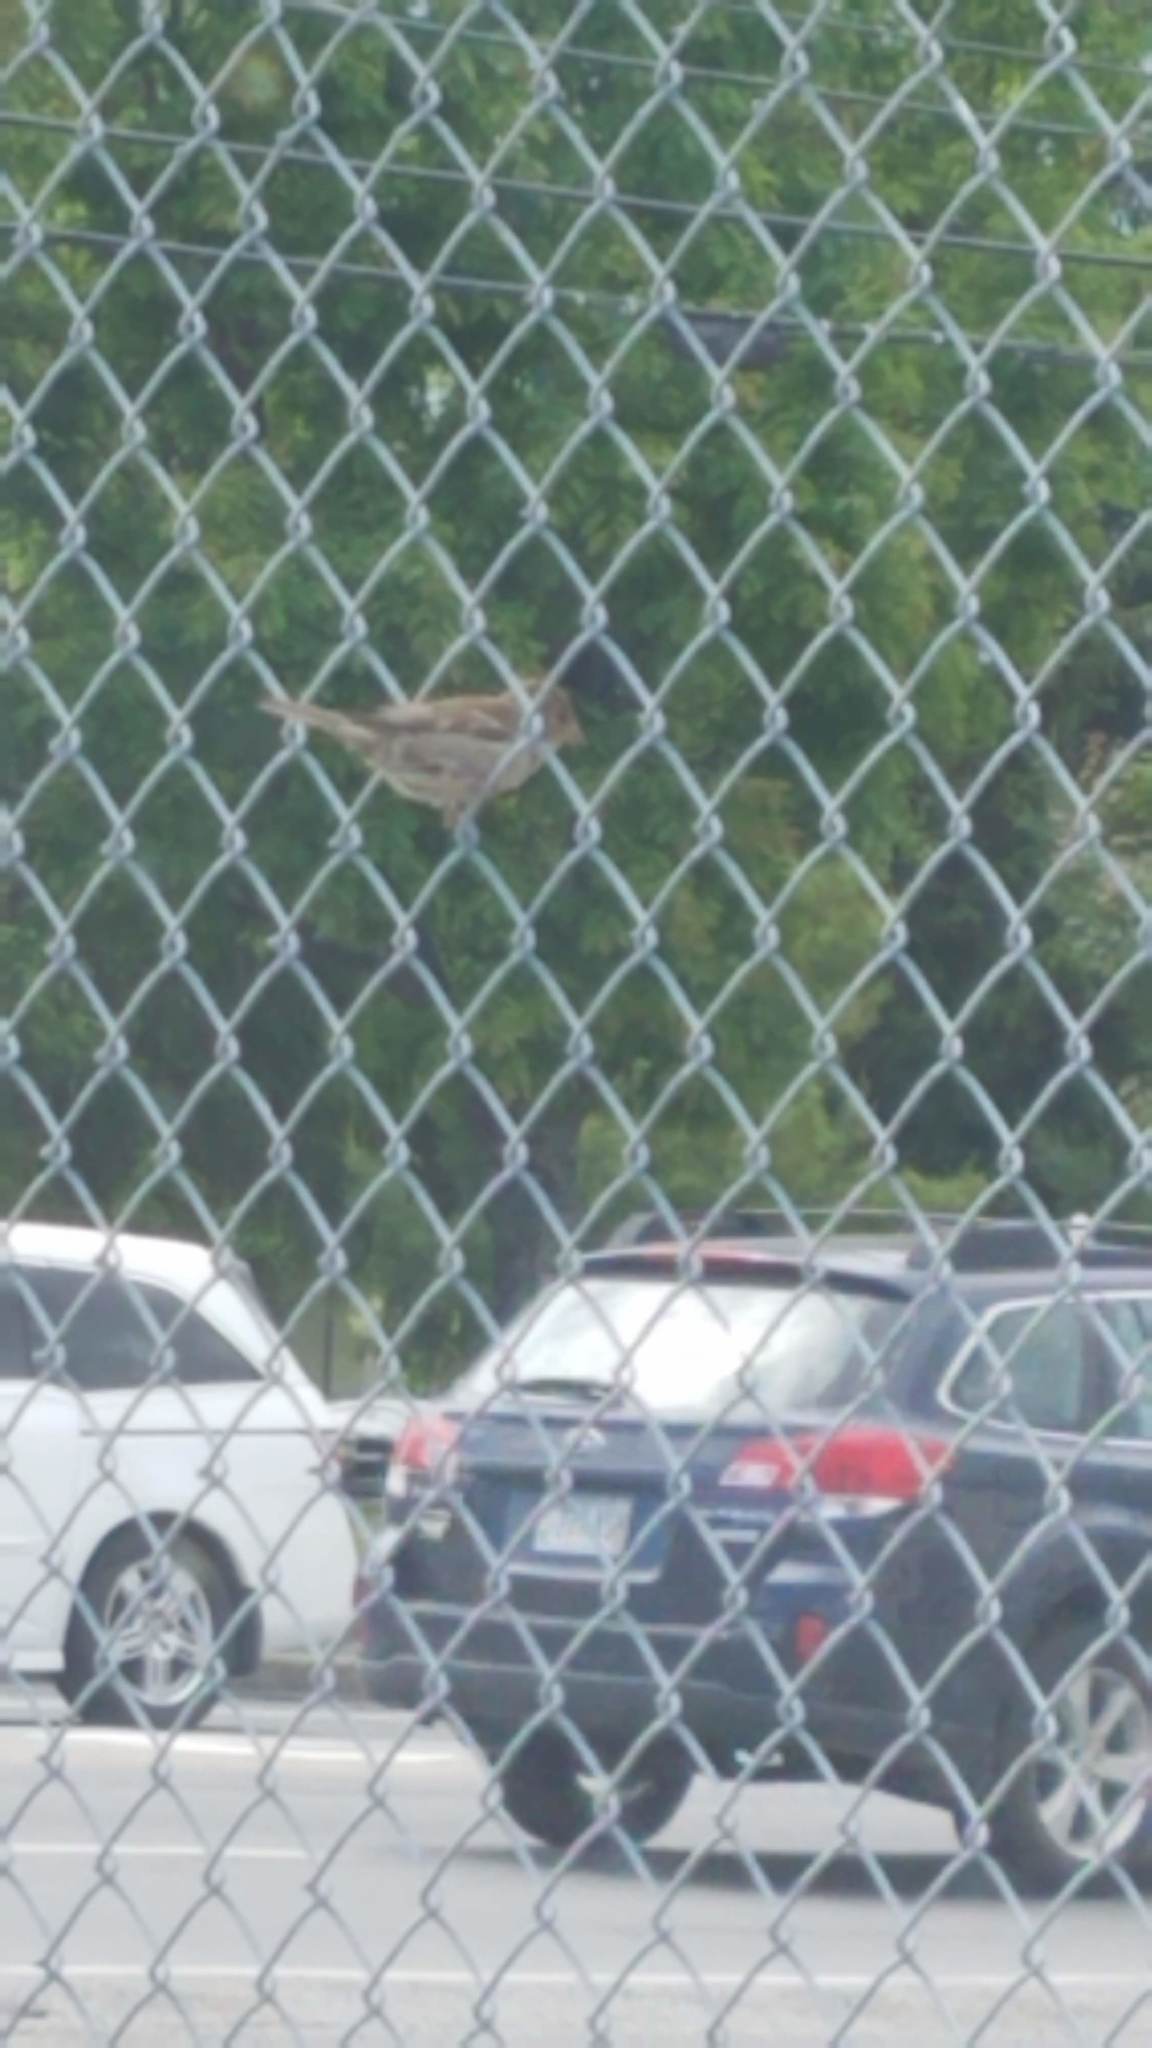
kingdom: Animalia
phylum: Chordata
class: Aves
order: Passeriformes
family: Passeridae
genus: Passer
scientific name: Passer domesticus
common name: House sparrow
